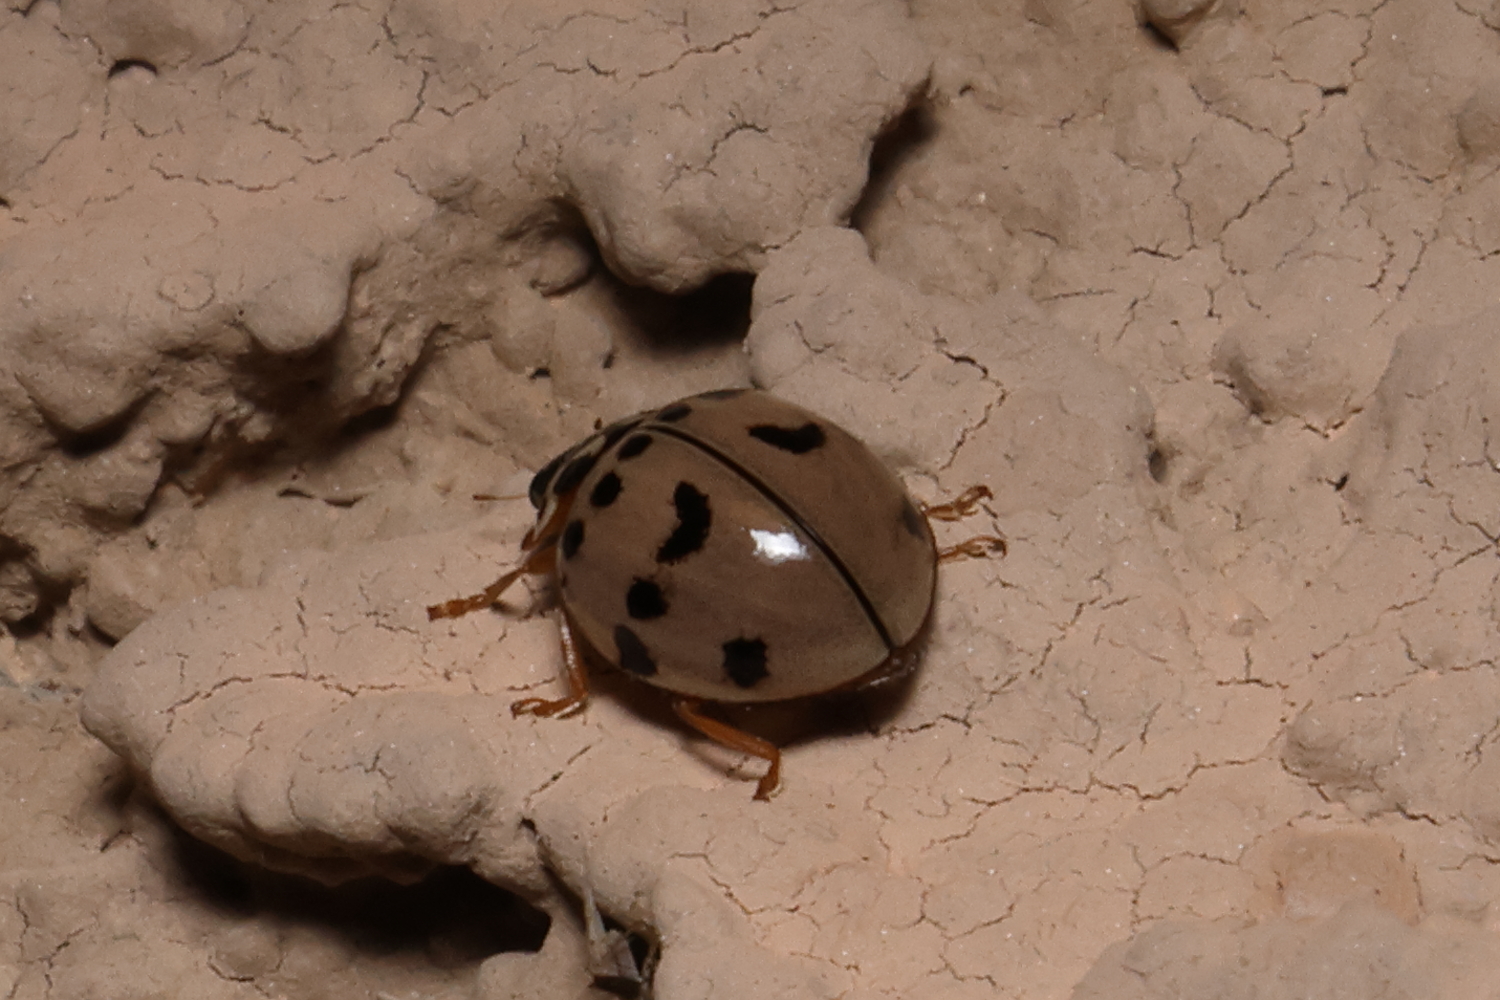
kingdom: Animalia
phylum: Arthropoda
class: Insecta
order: Coleoptera
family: Coccinellidae
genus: Olla
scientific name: Olla v-nigrum
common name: Ashy gray lady beetle
